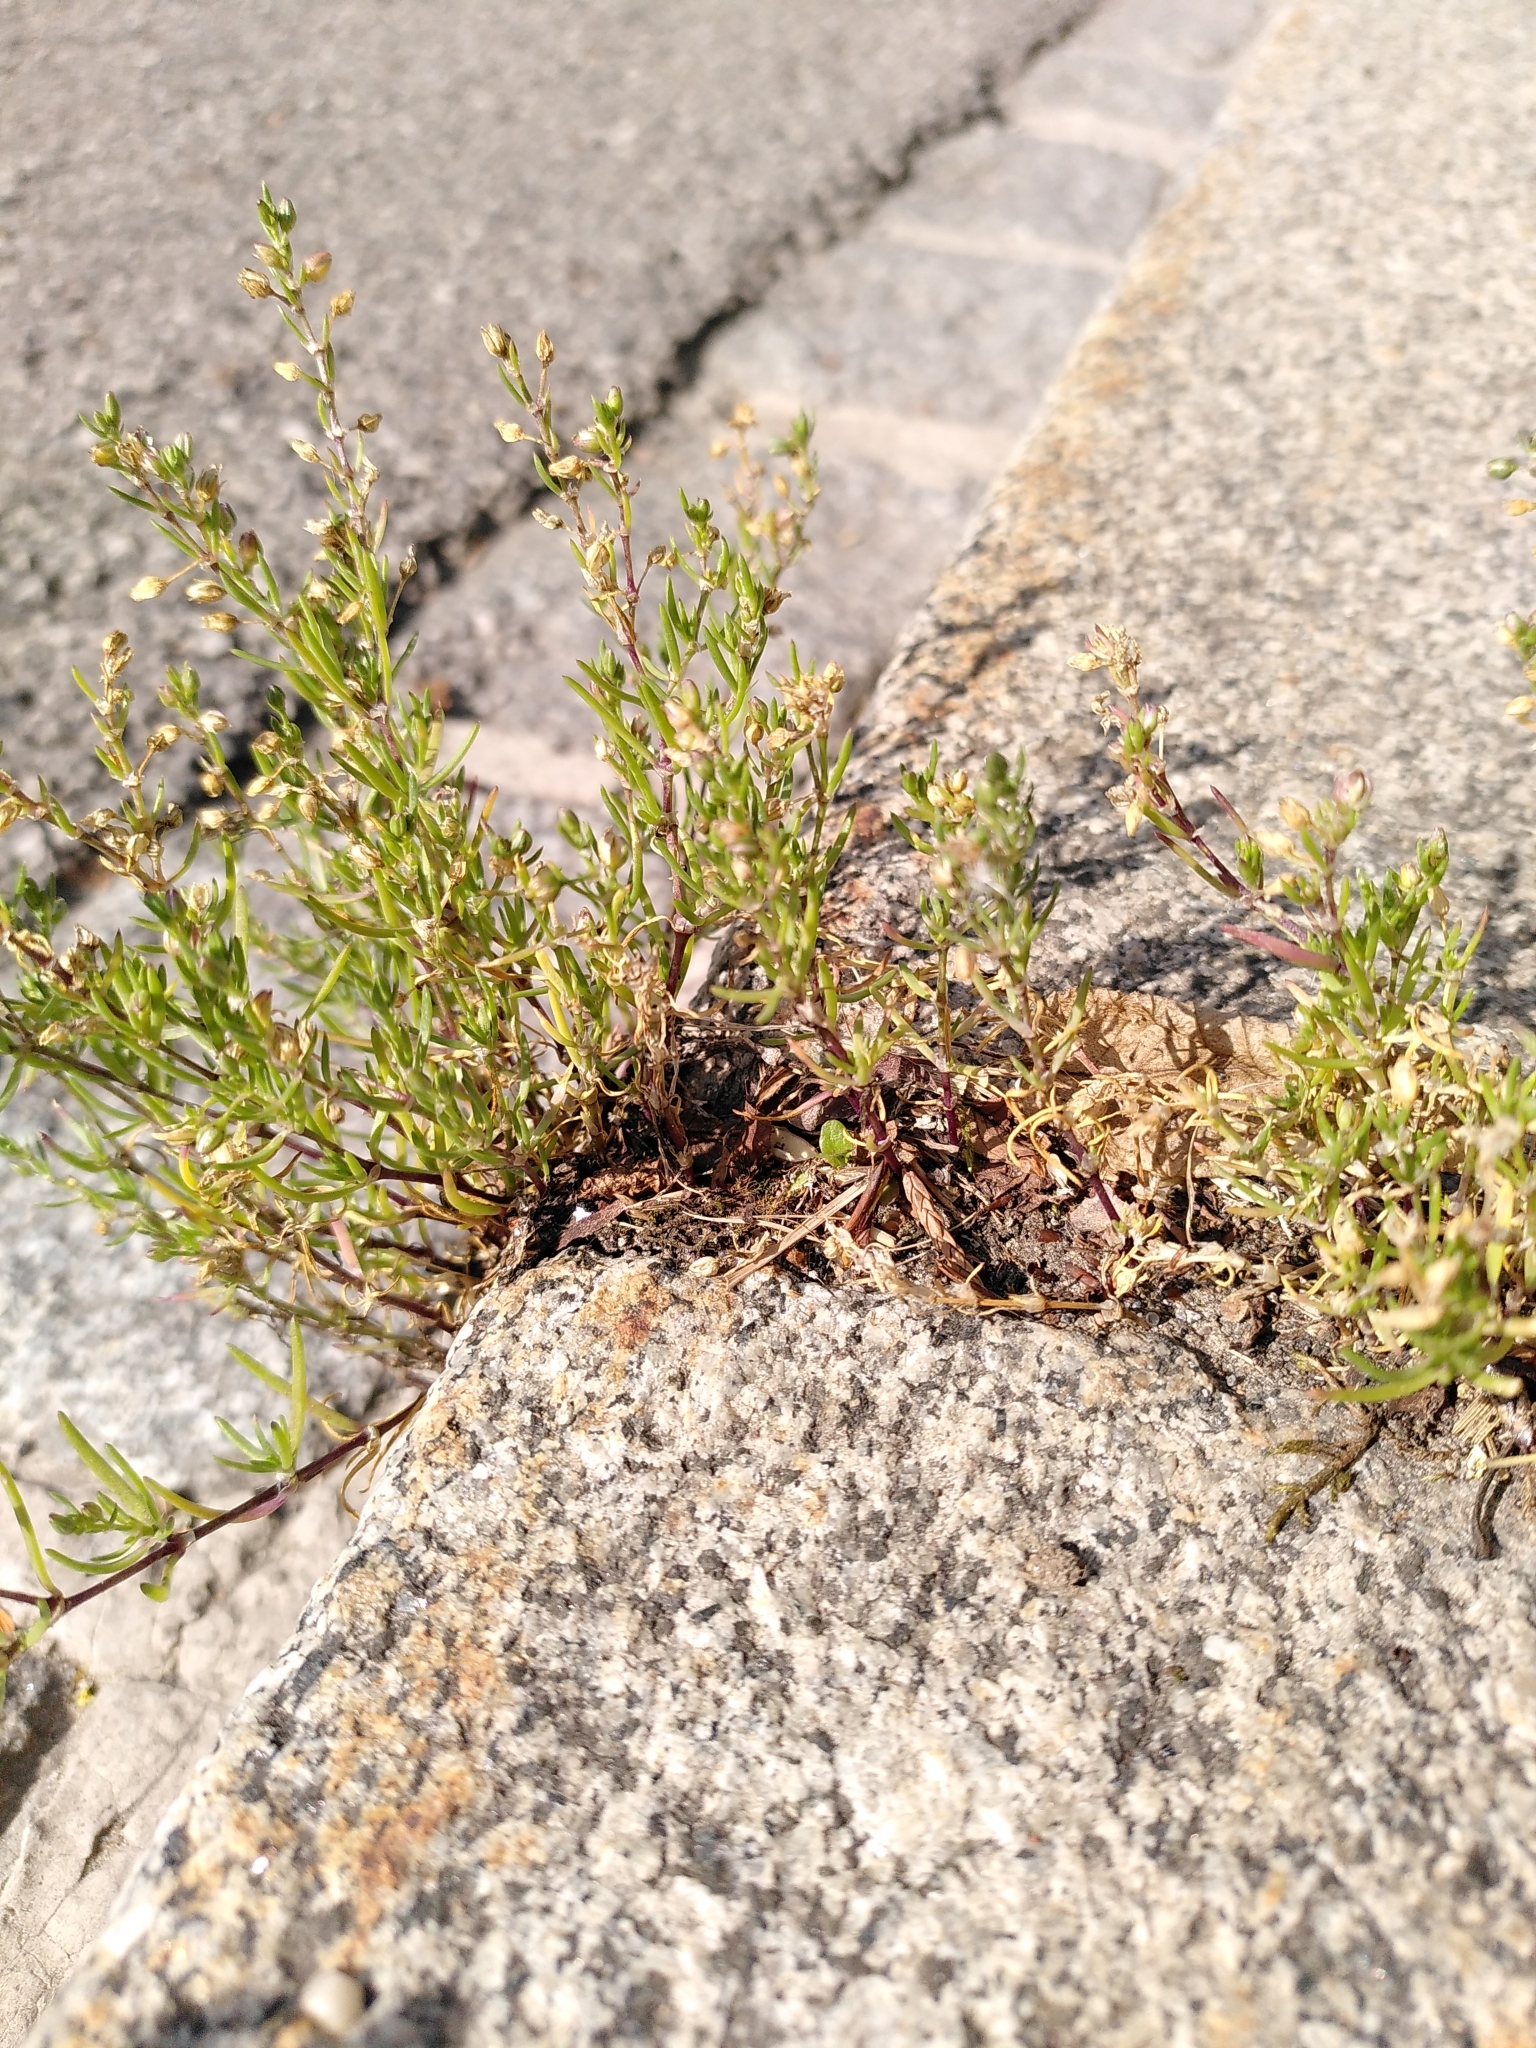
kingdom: Plantae
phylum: Tracheophyta
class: Magnoliopsida
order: Caryophyllales
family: Caryophyllaceae
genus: Spergularia
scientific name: Spergularia marina
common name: Lesser sea-spurrey
